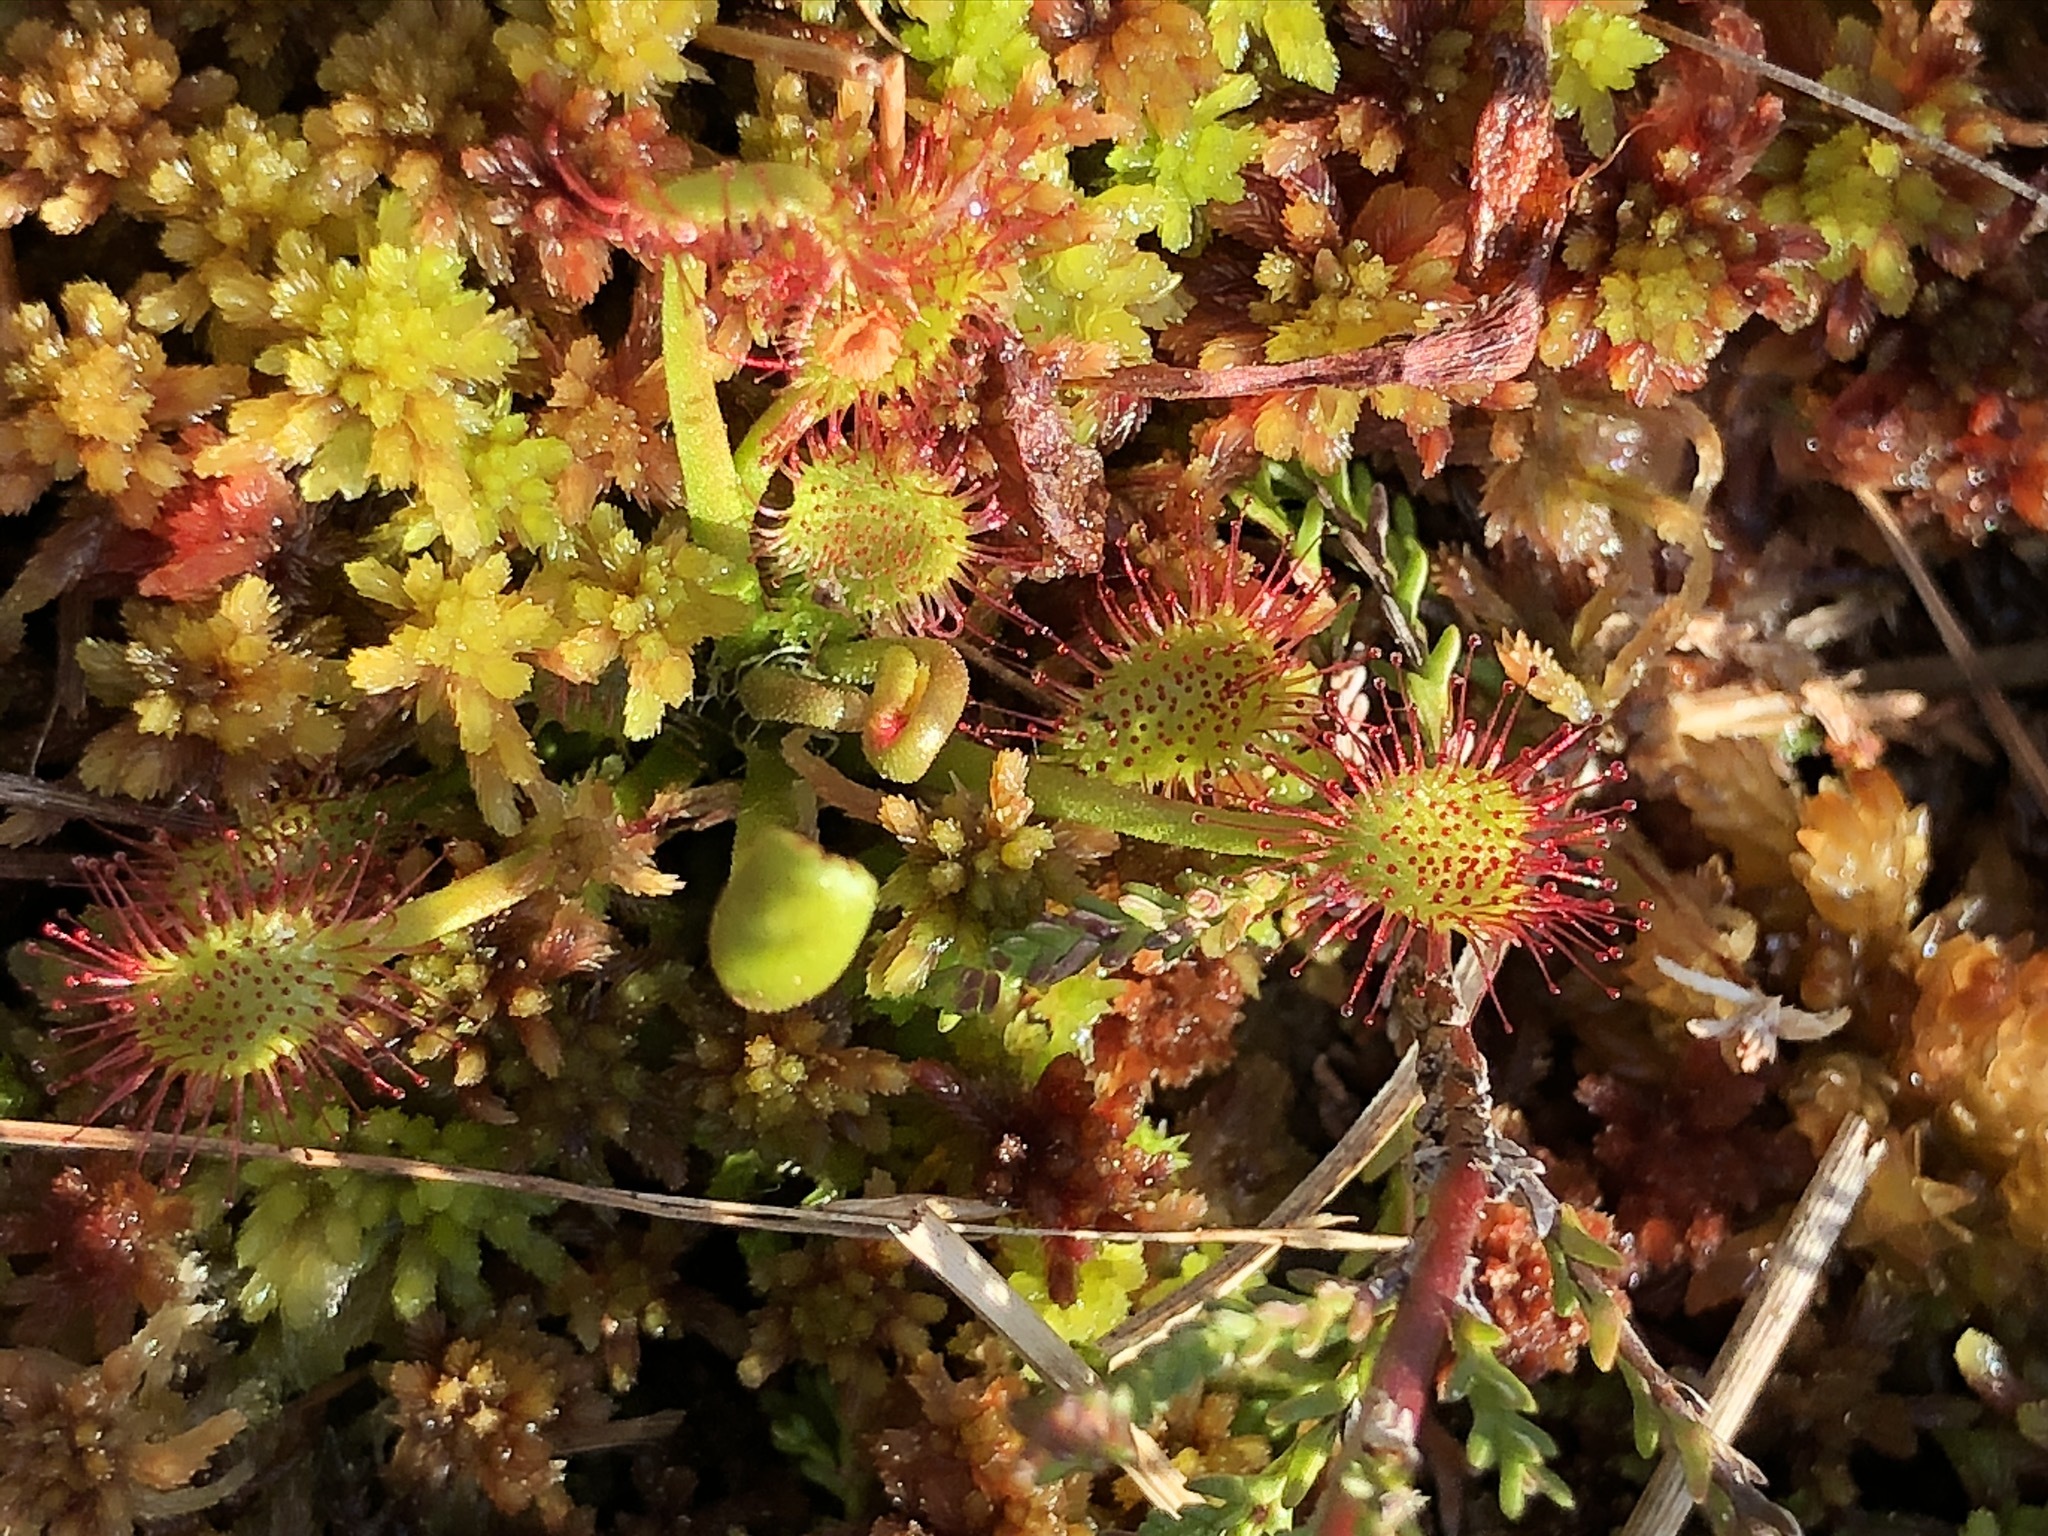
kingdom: Plantae
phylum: Tracheophyta
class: Magnoliopsida
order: Caryophyllales
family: Droseraceae
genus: Drosera
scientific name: Drosera rotundifolia
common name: Round-leaved sundew
